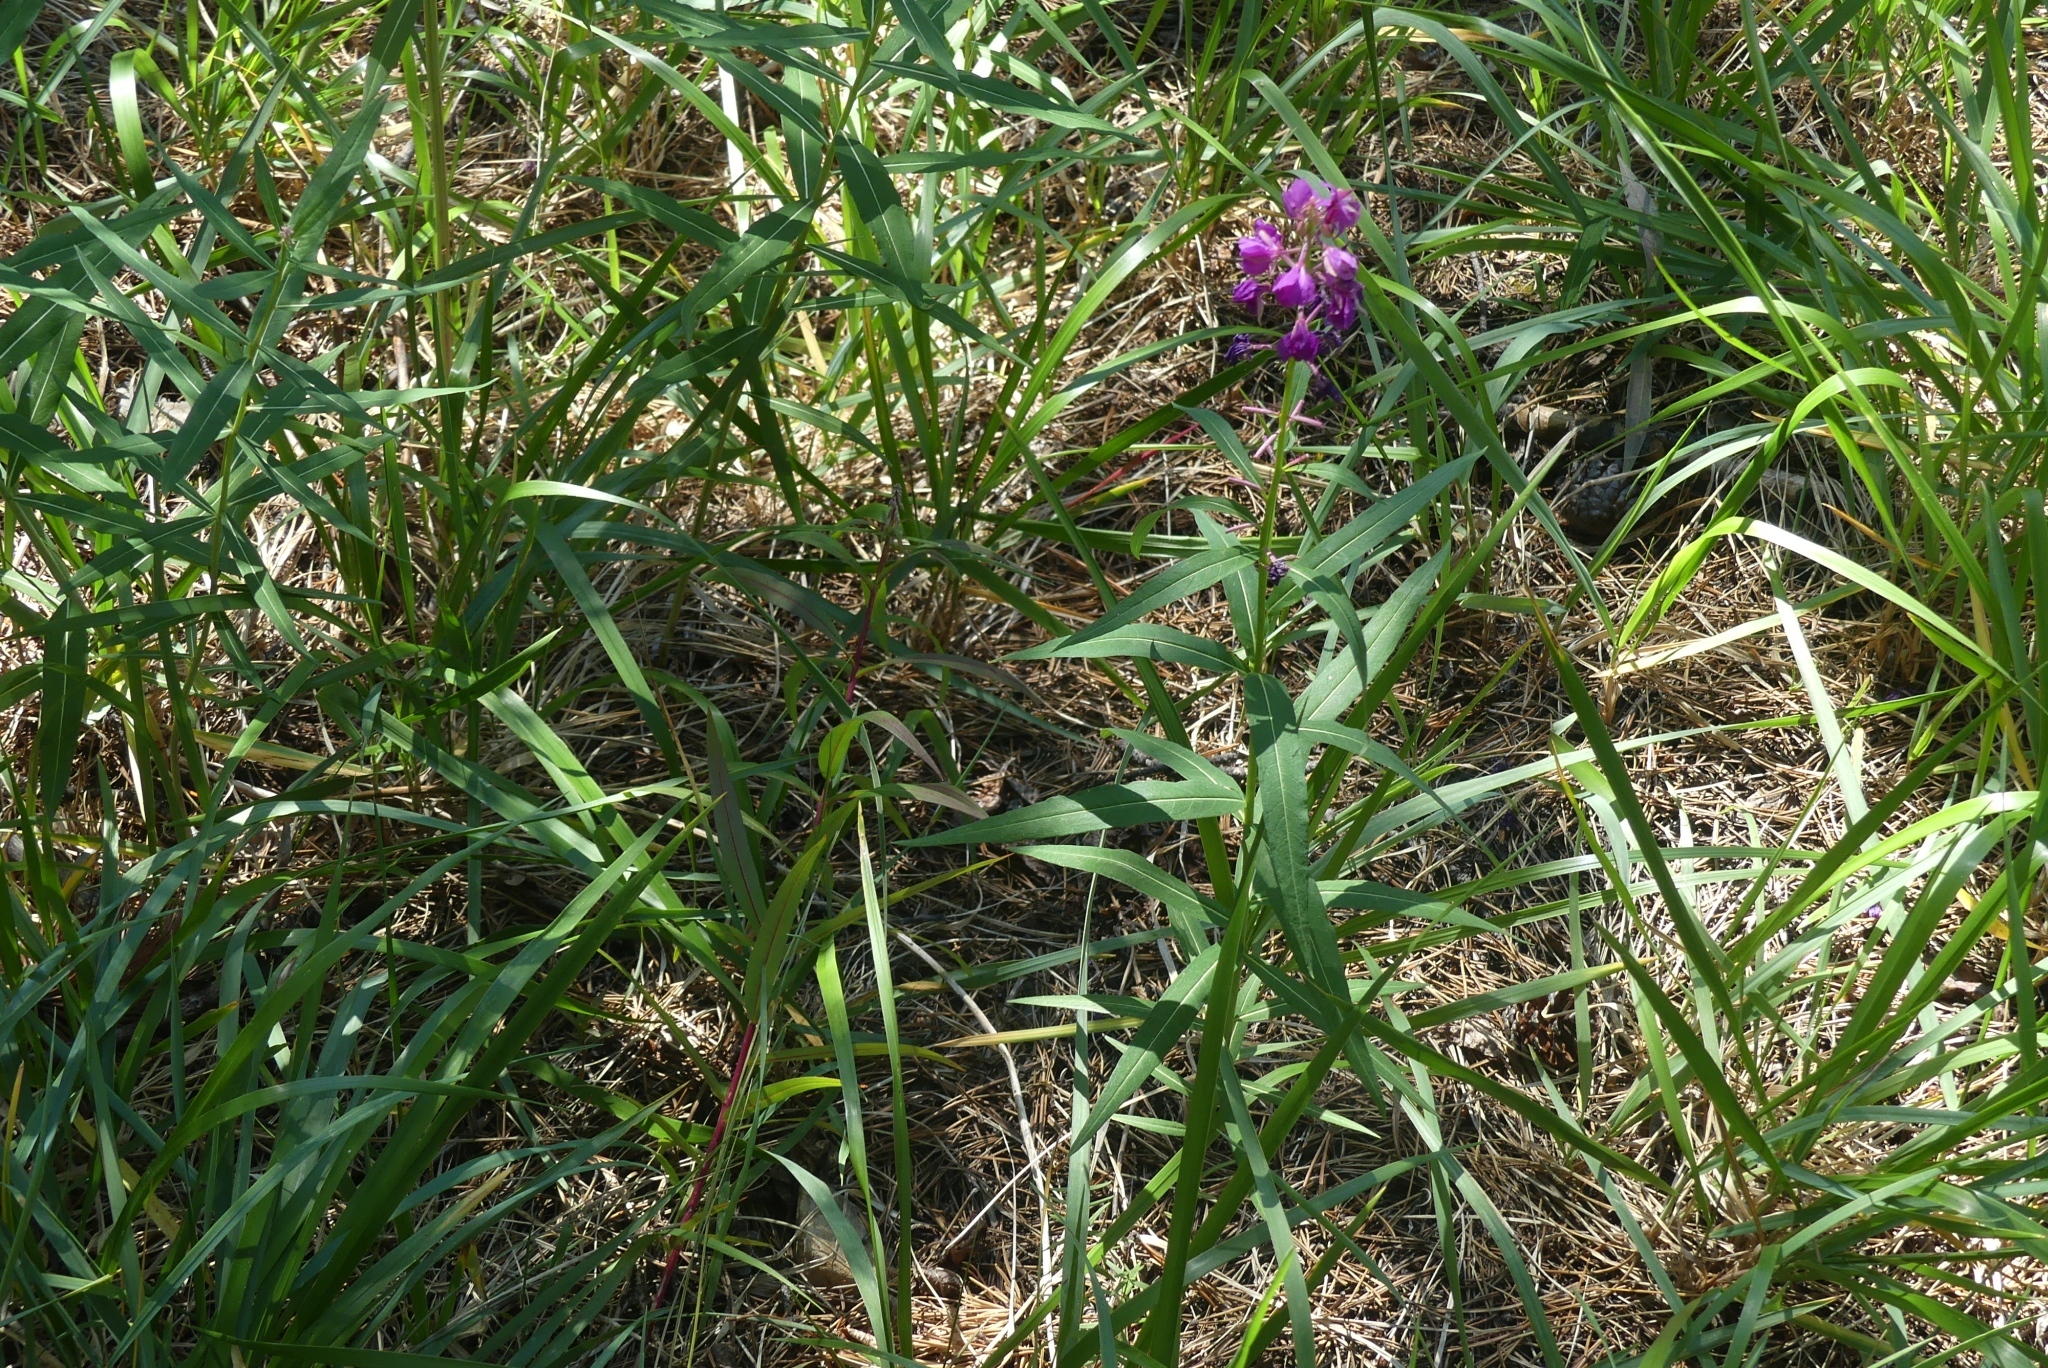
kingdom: Plantae
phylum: Tracheophyta
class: Magnoliopsida
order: Myrtales
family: Onagraceae
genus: Chamaenerion
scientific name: Chamaenerion angustifolium
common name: Fireweed
